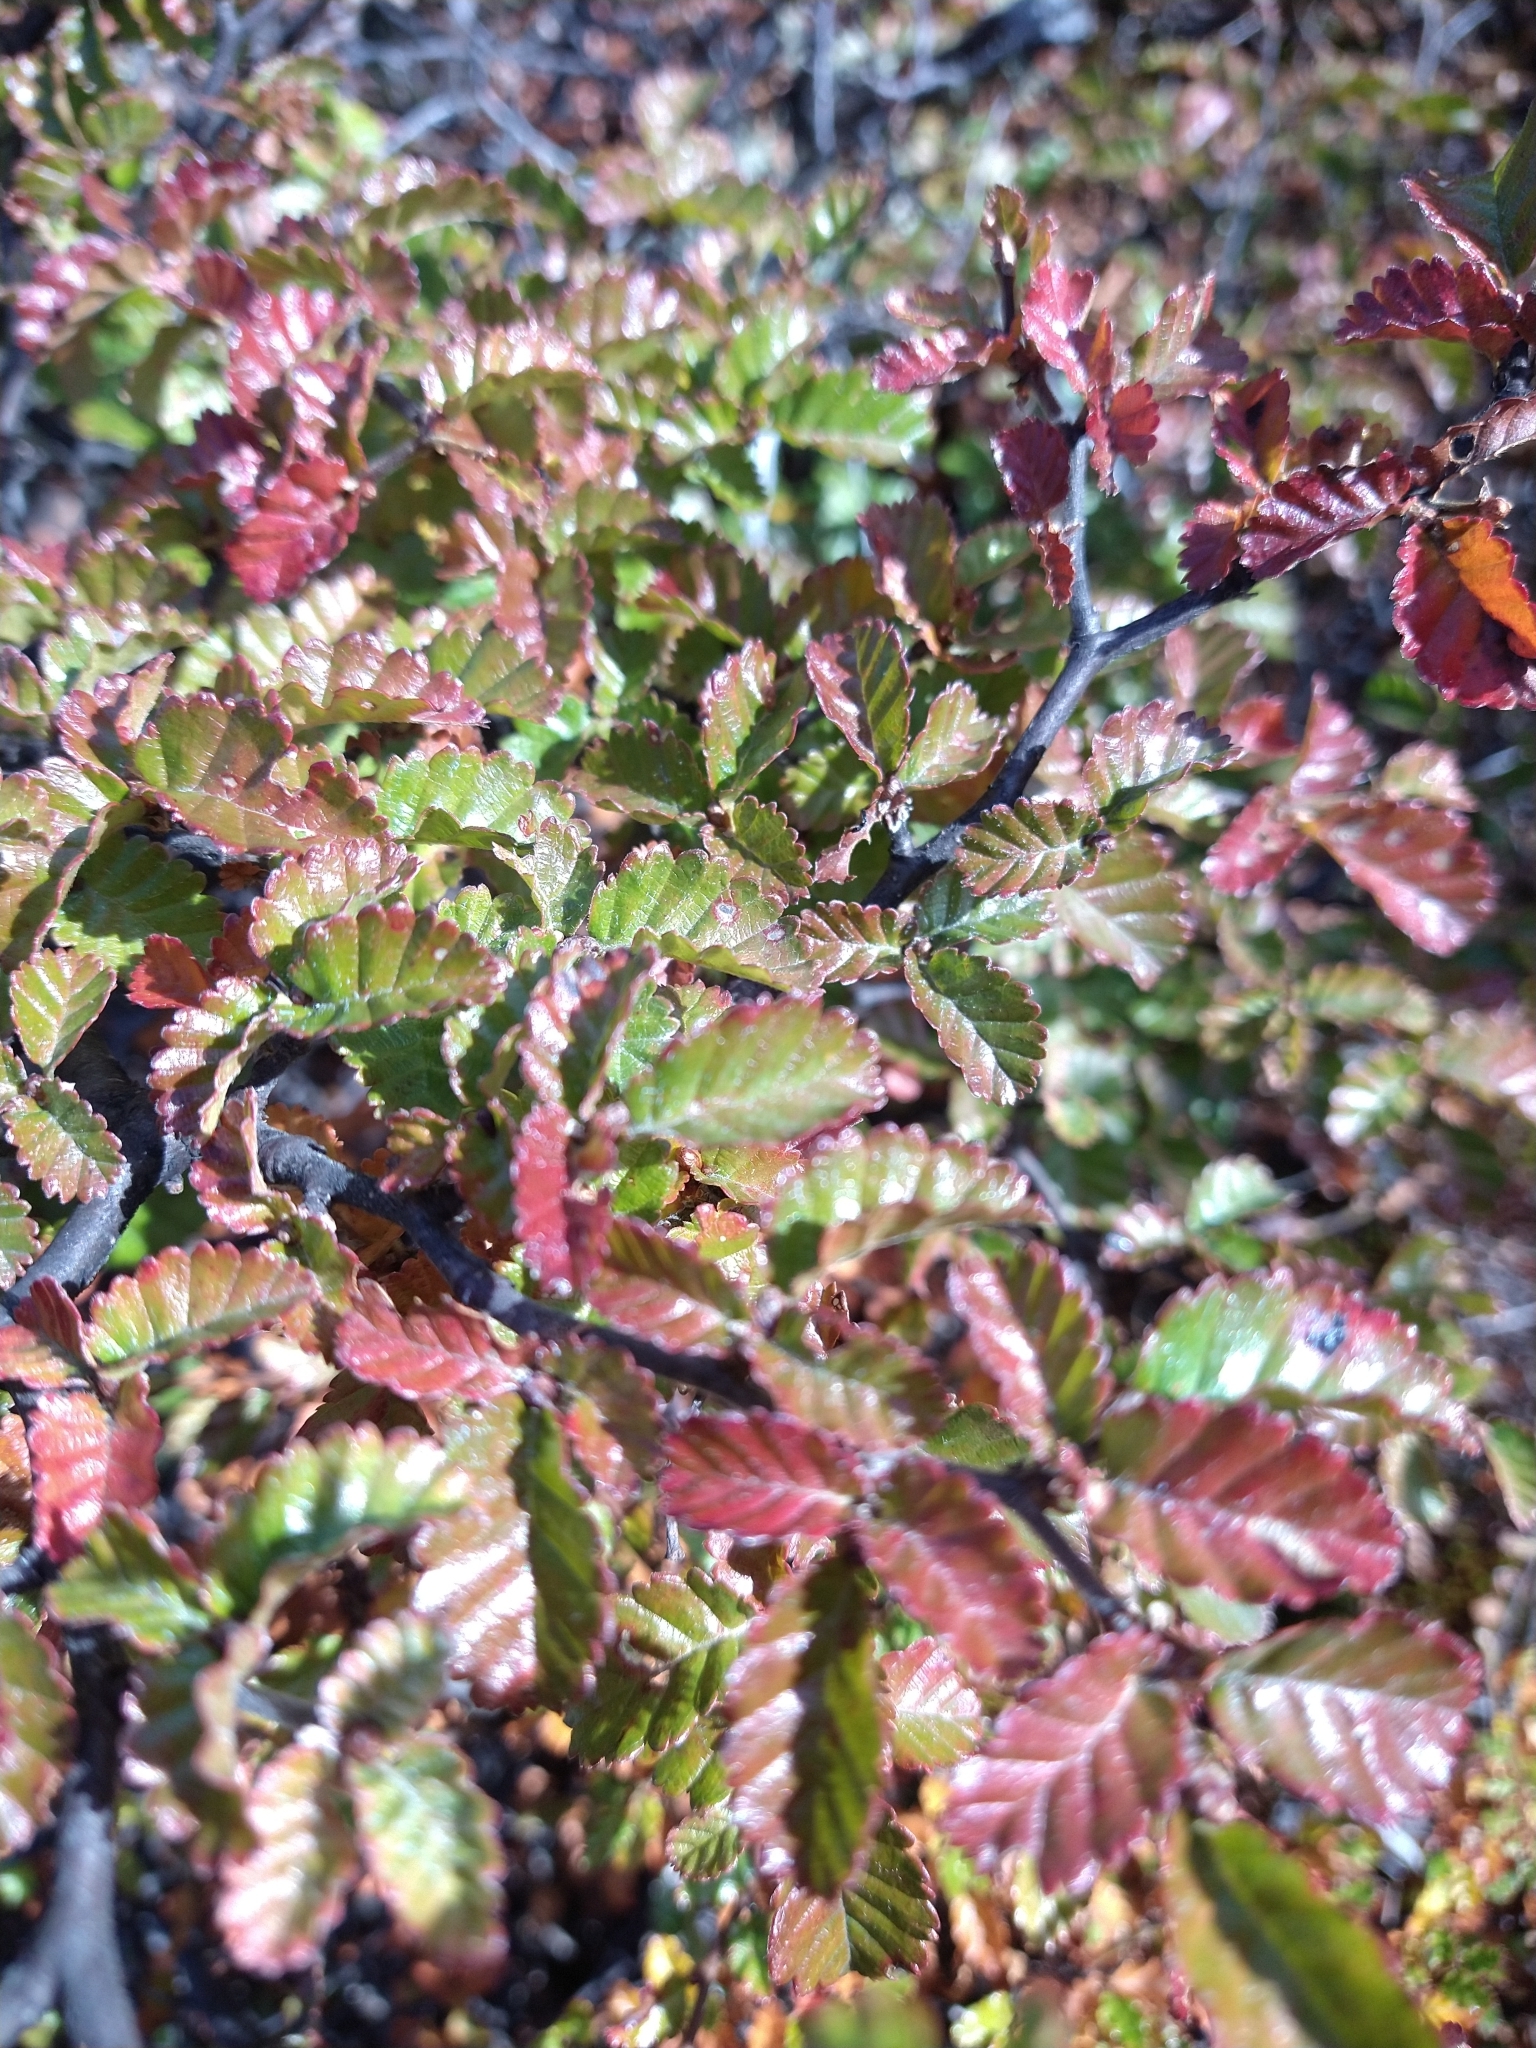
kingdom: Plantae
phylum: Tracheophyta
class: Magnoliopsida
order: Fagales
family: Nothofagaceae
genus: Nothofagus
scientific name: Nothofagus pumilio
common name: Lenga beech
